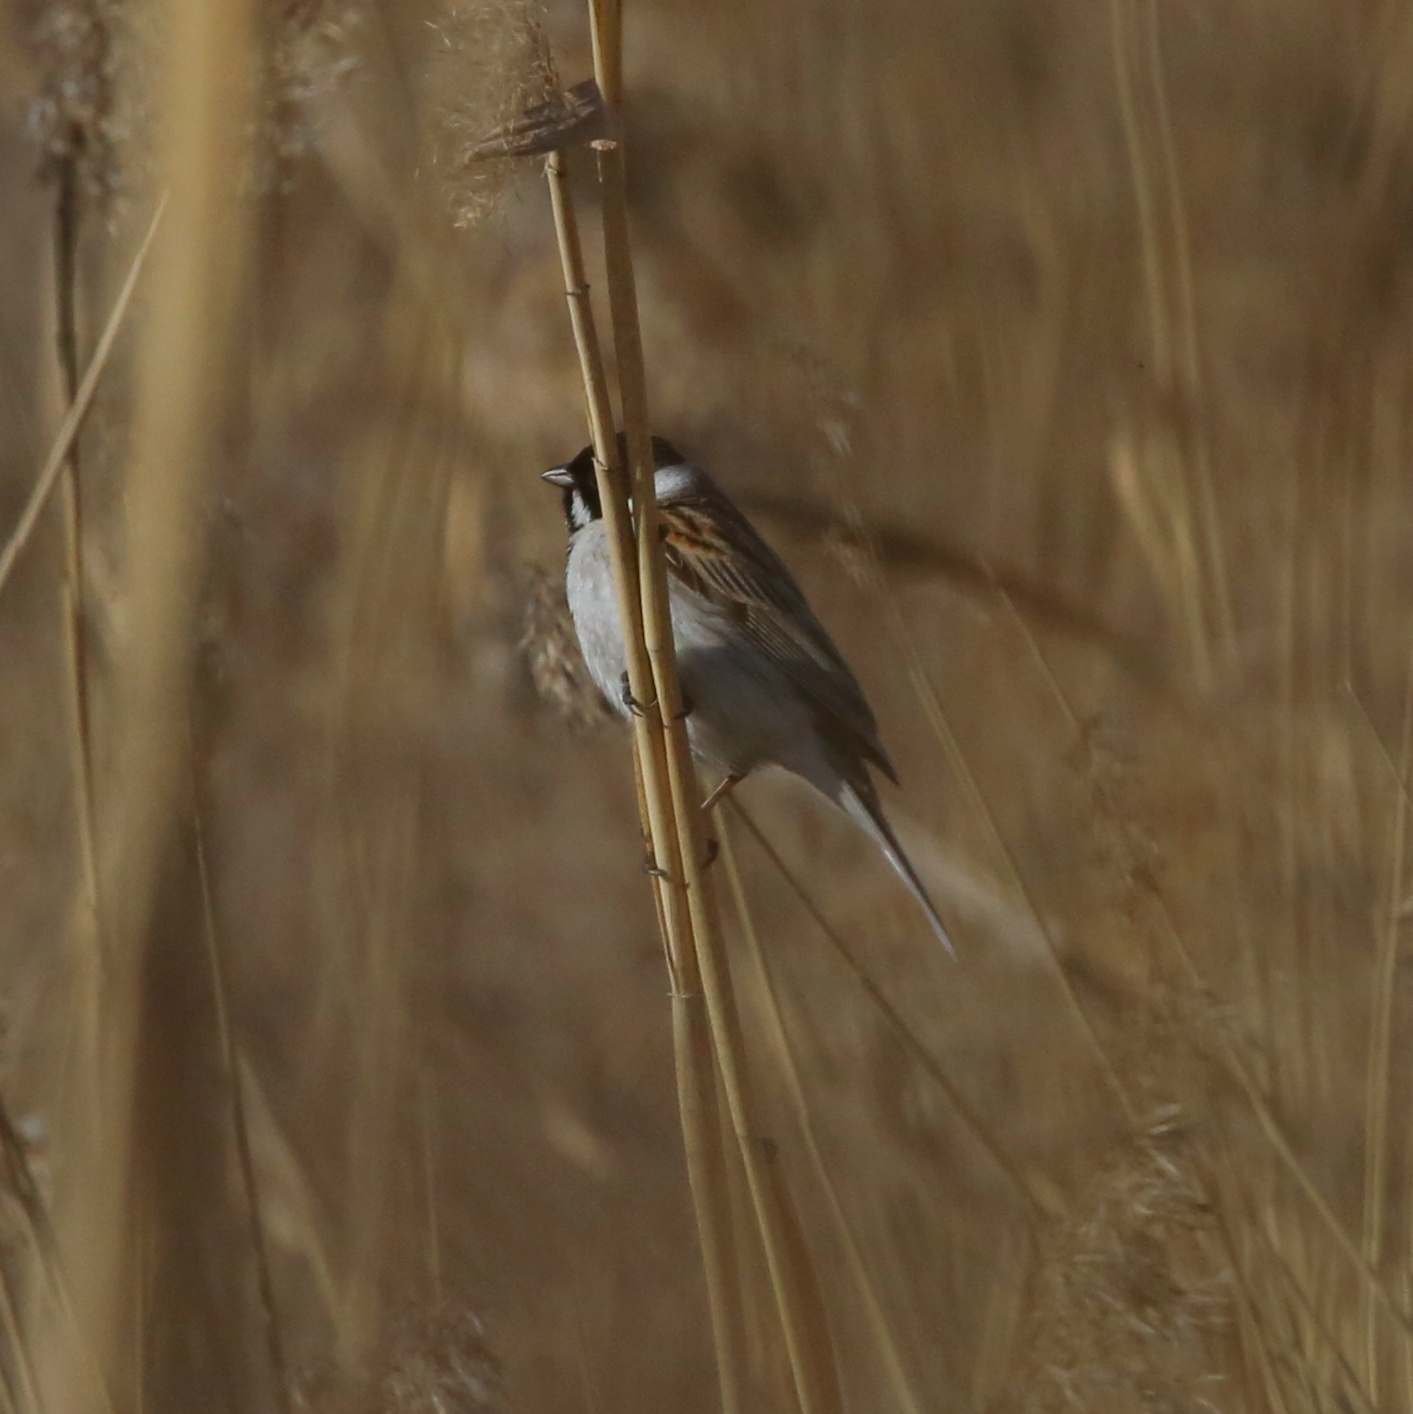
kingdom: Animalia
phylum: Chordata
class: Aves
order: Passeriformes
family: Emberizidae
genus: Emberiza
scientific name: Emberiza schoeniclus
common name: Reed bunting
